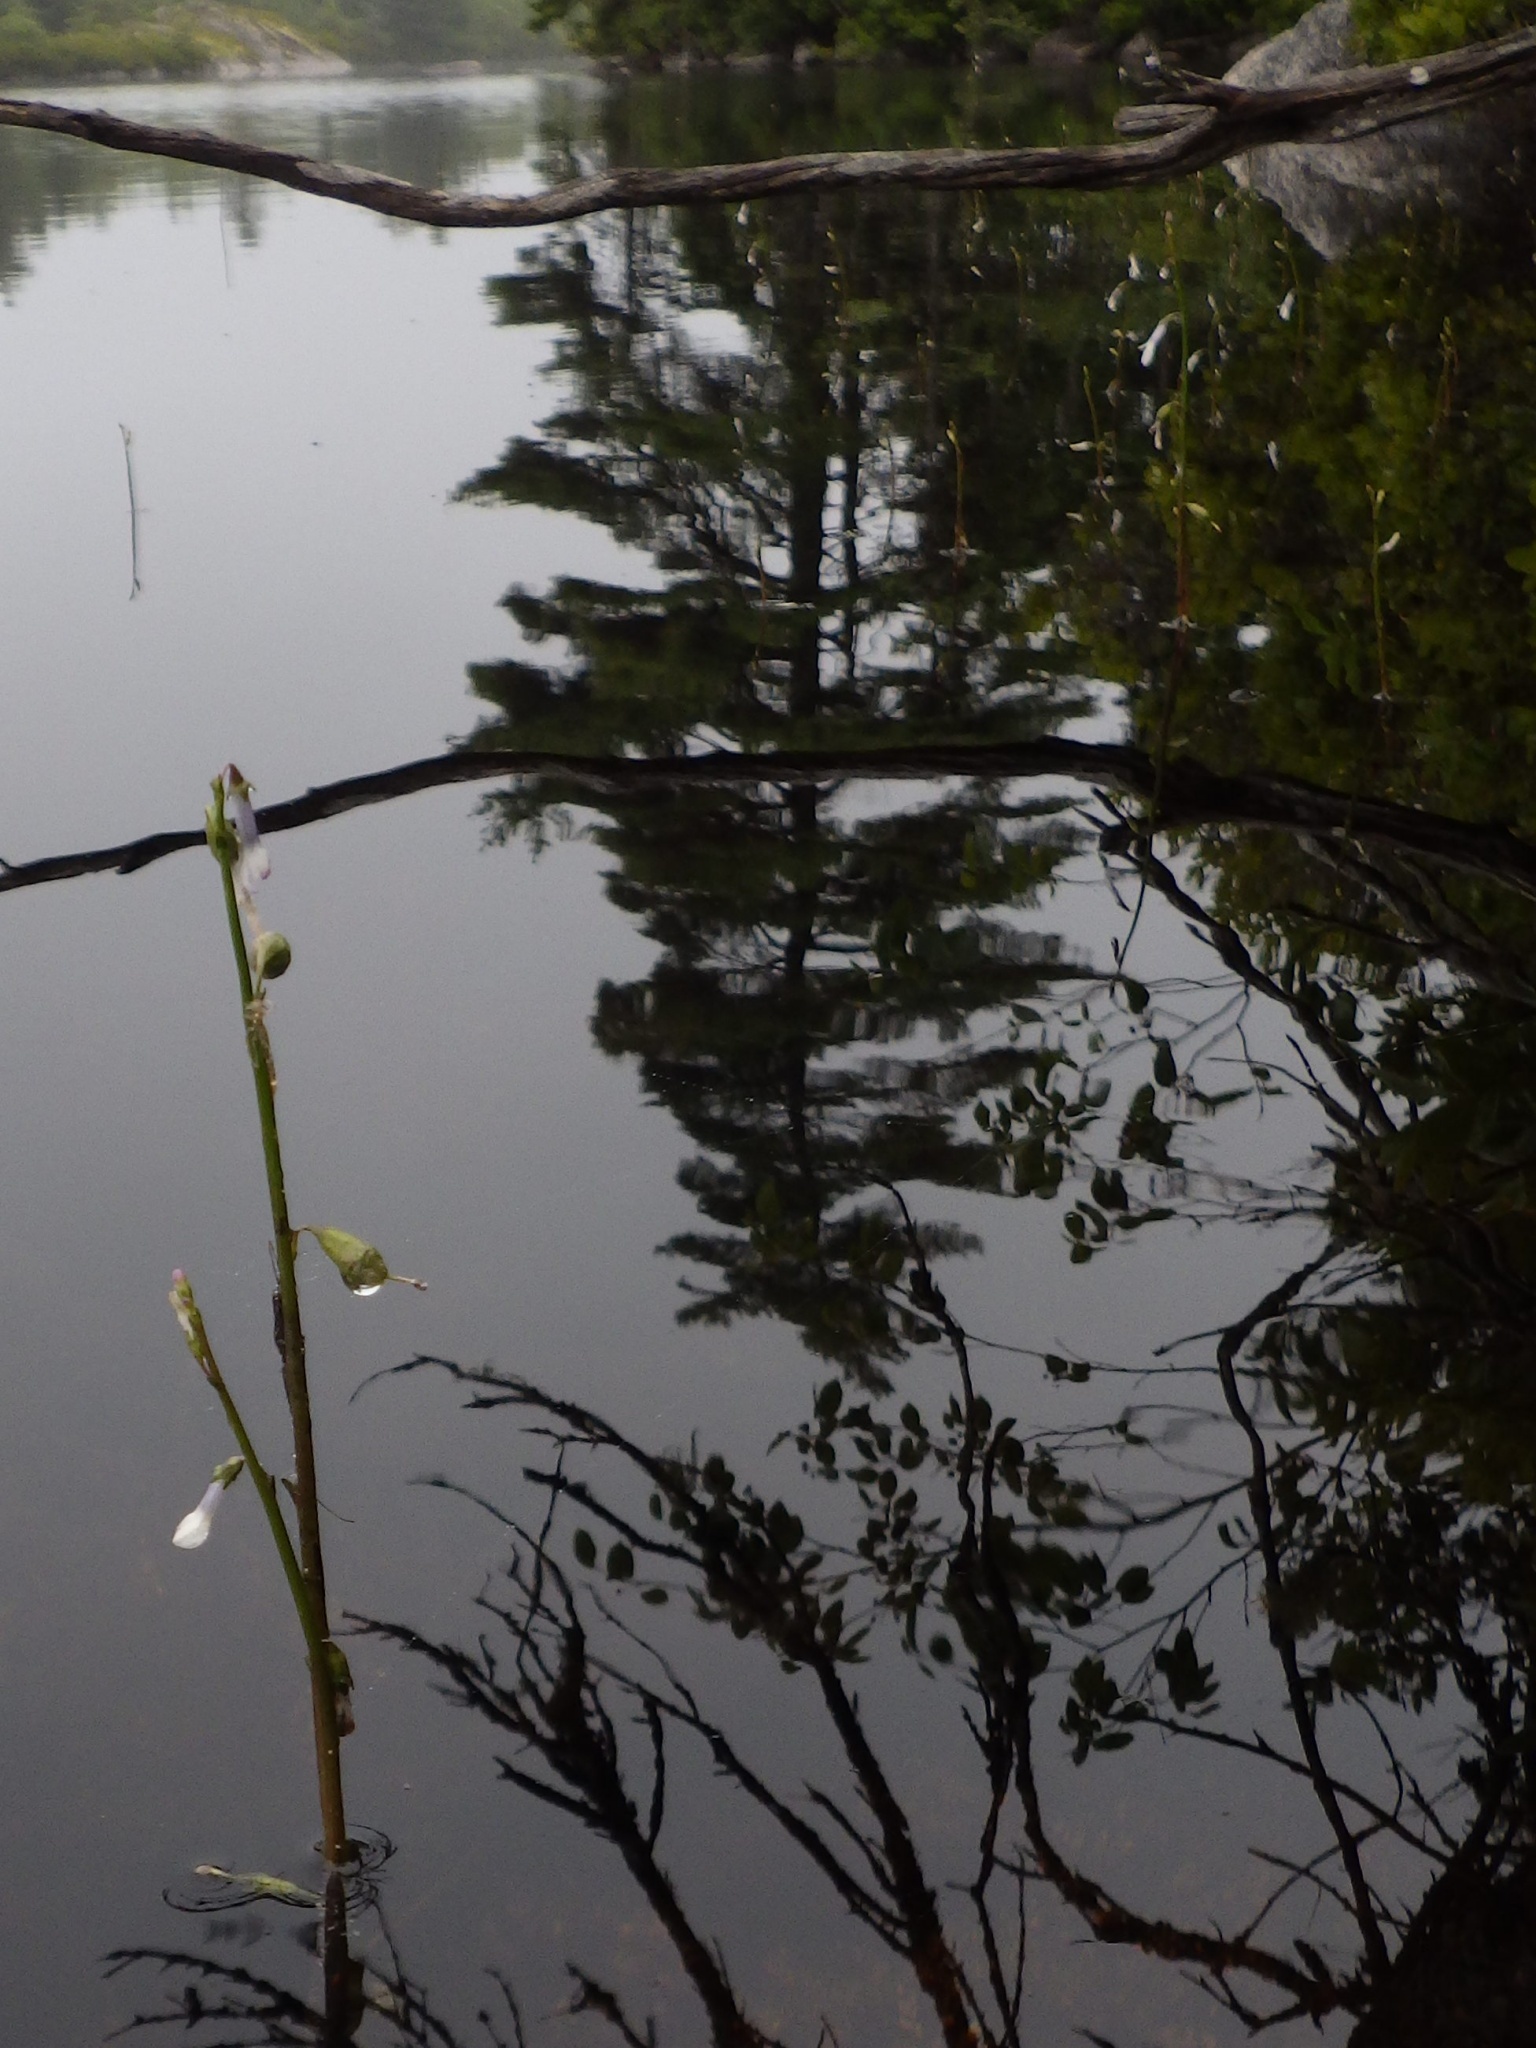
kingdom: Plantae
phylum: Tracheophyta
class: Magnoliopsida
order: Asterales
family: Campanulaceae
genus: Lobelia
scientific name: Lobelia dortmanna
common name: Water lobelia
